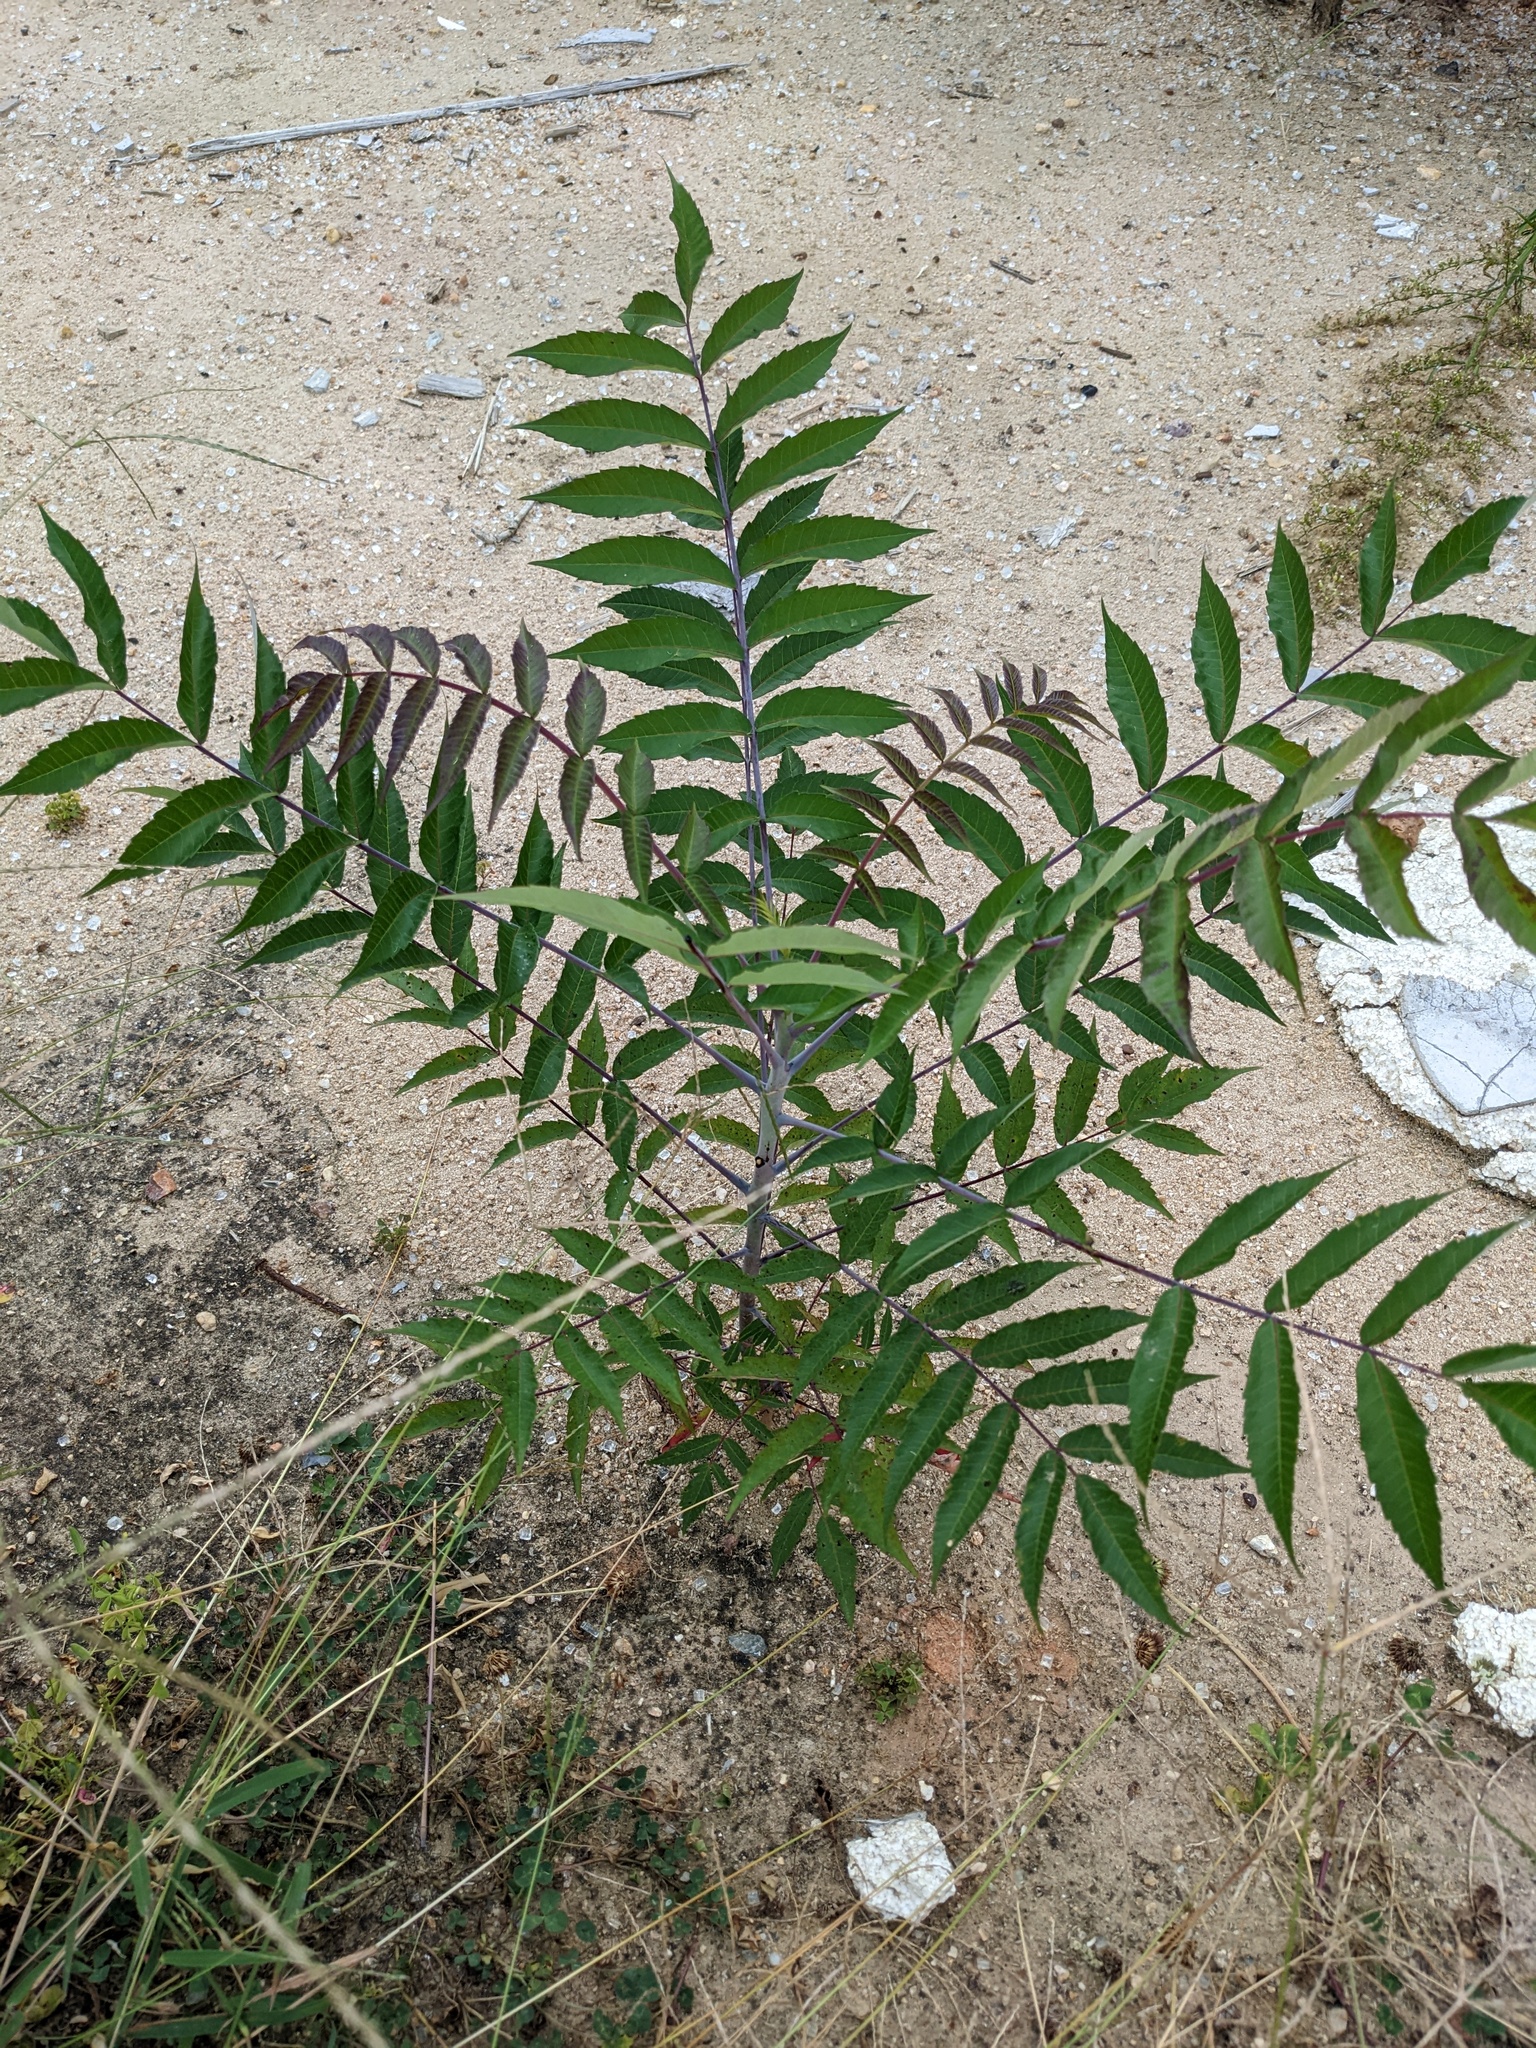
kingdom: Plantae
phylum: Tracheophyta
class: Magnoliopsida
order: Sapindales
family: Anacardiaceae
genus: Rhus
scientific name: Rhus glabra
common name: Scarlet sumac
